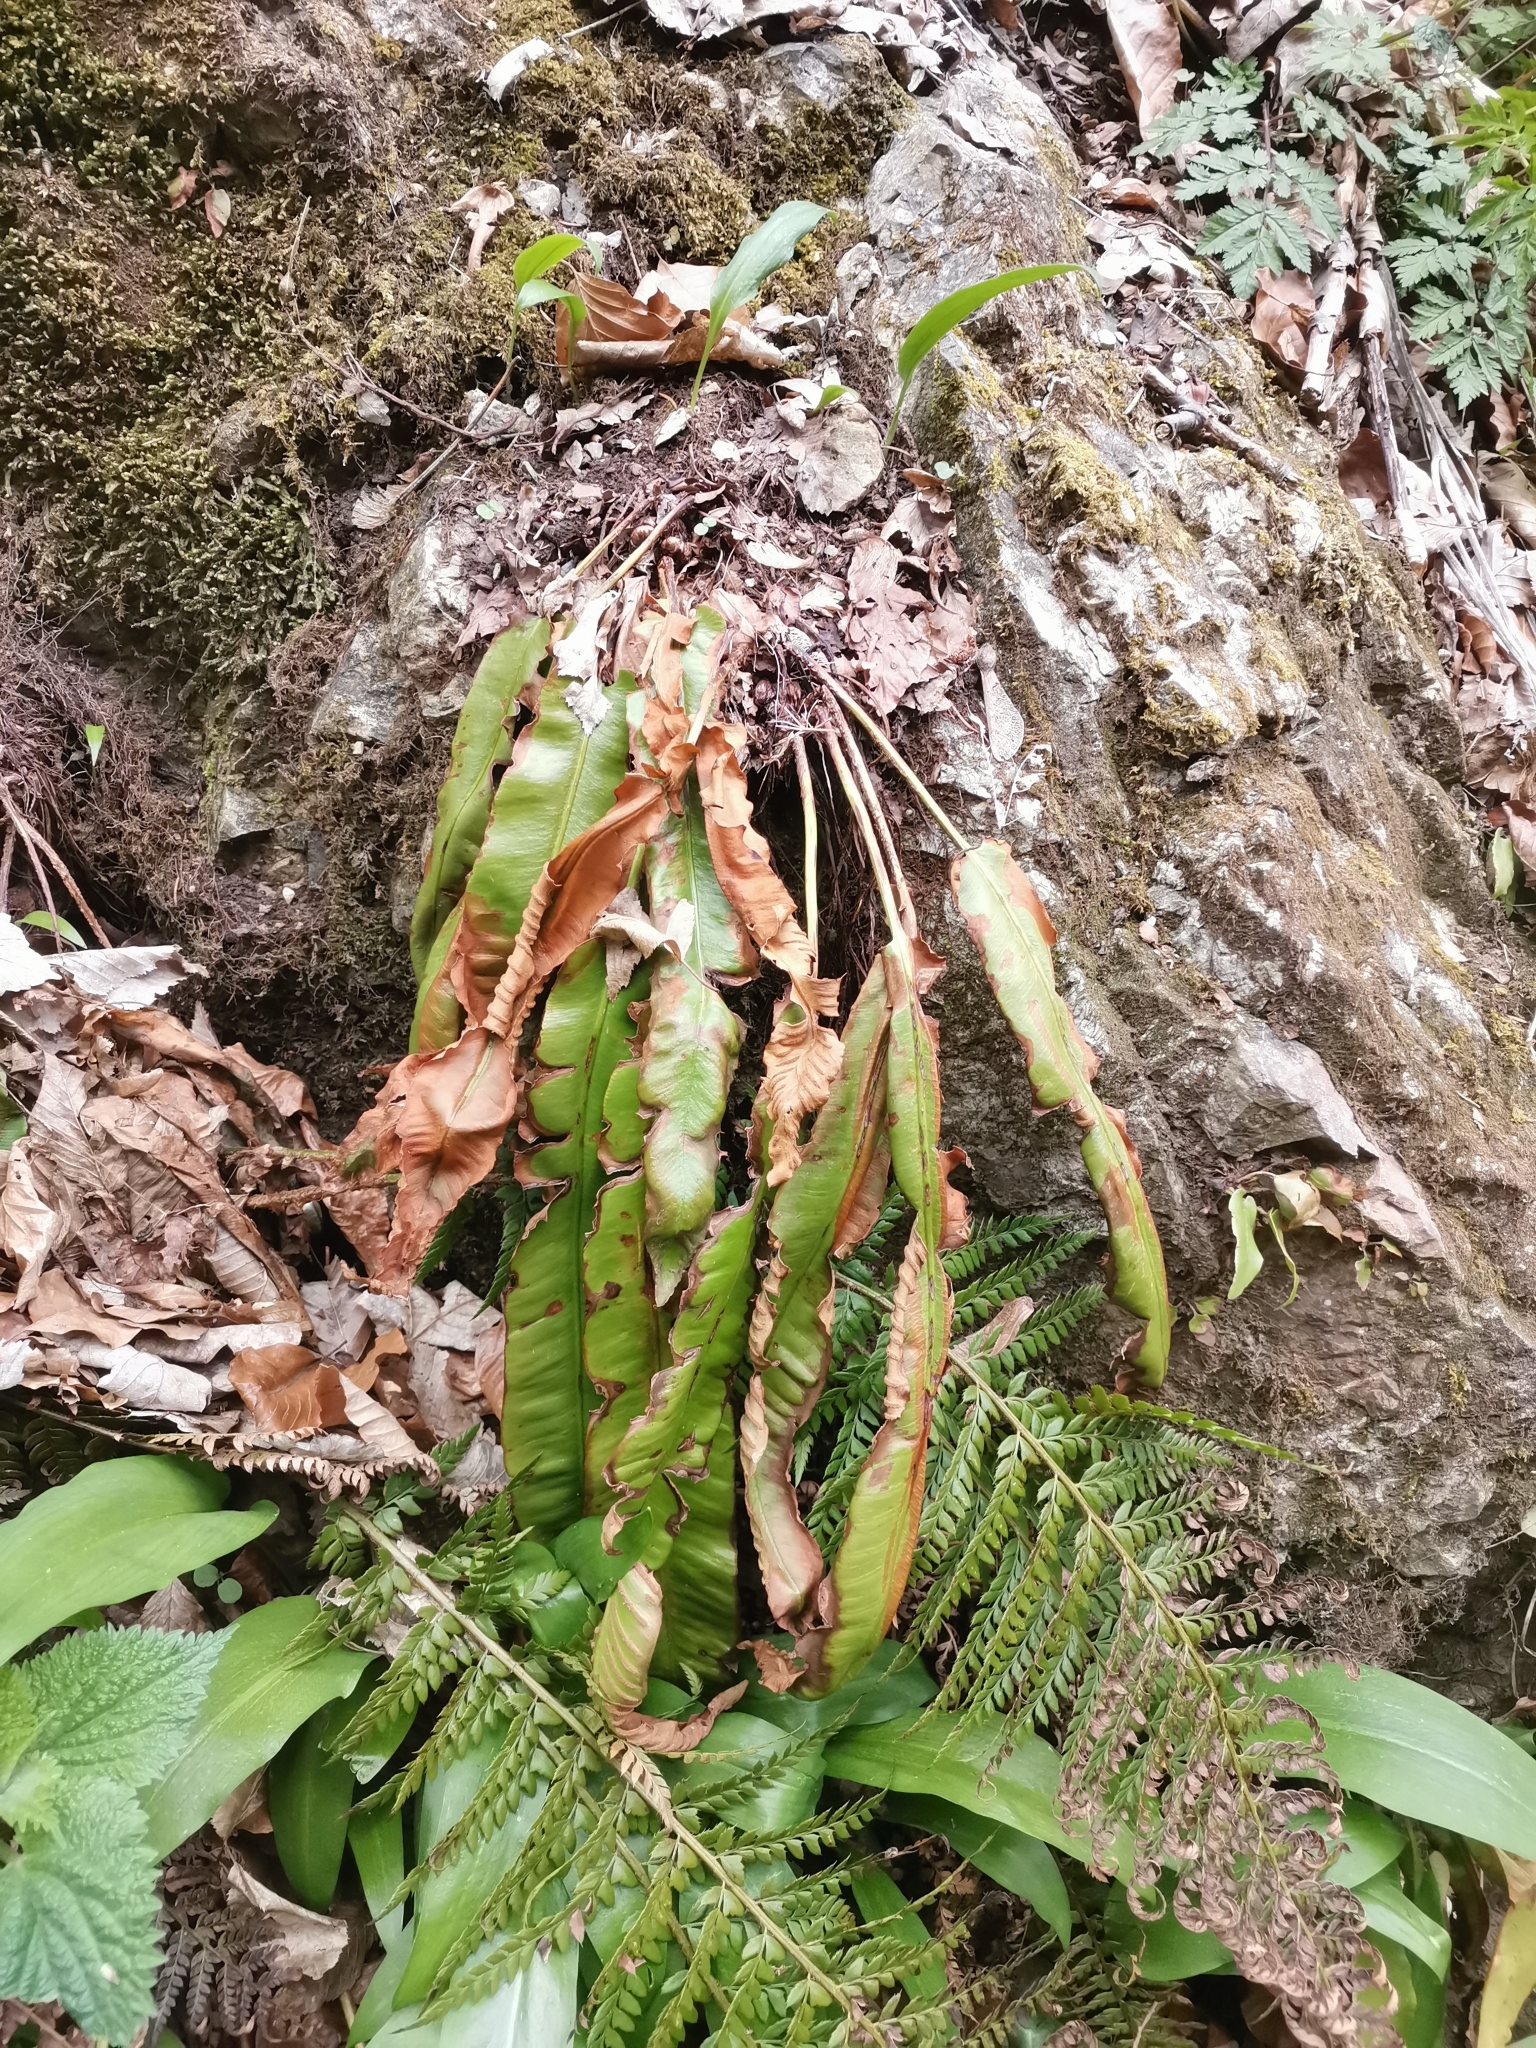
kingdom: Plantae
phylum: Tracheophyta
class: Polypodiopsida
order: Polypodiales
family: Aspleniaceae
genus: Asplenium
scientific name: Asplenium scolopendrium
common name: Hart's-tongue fern
